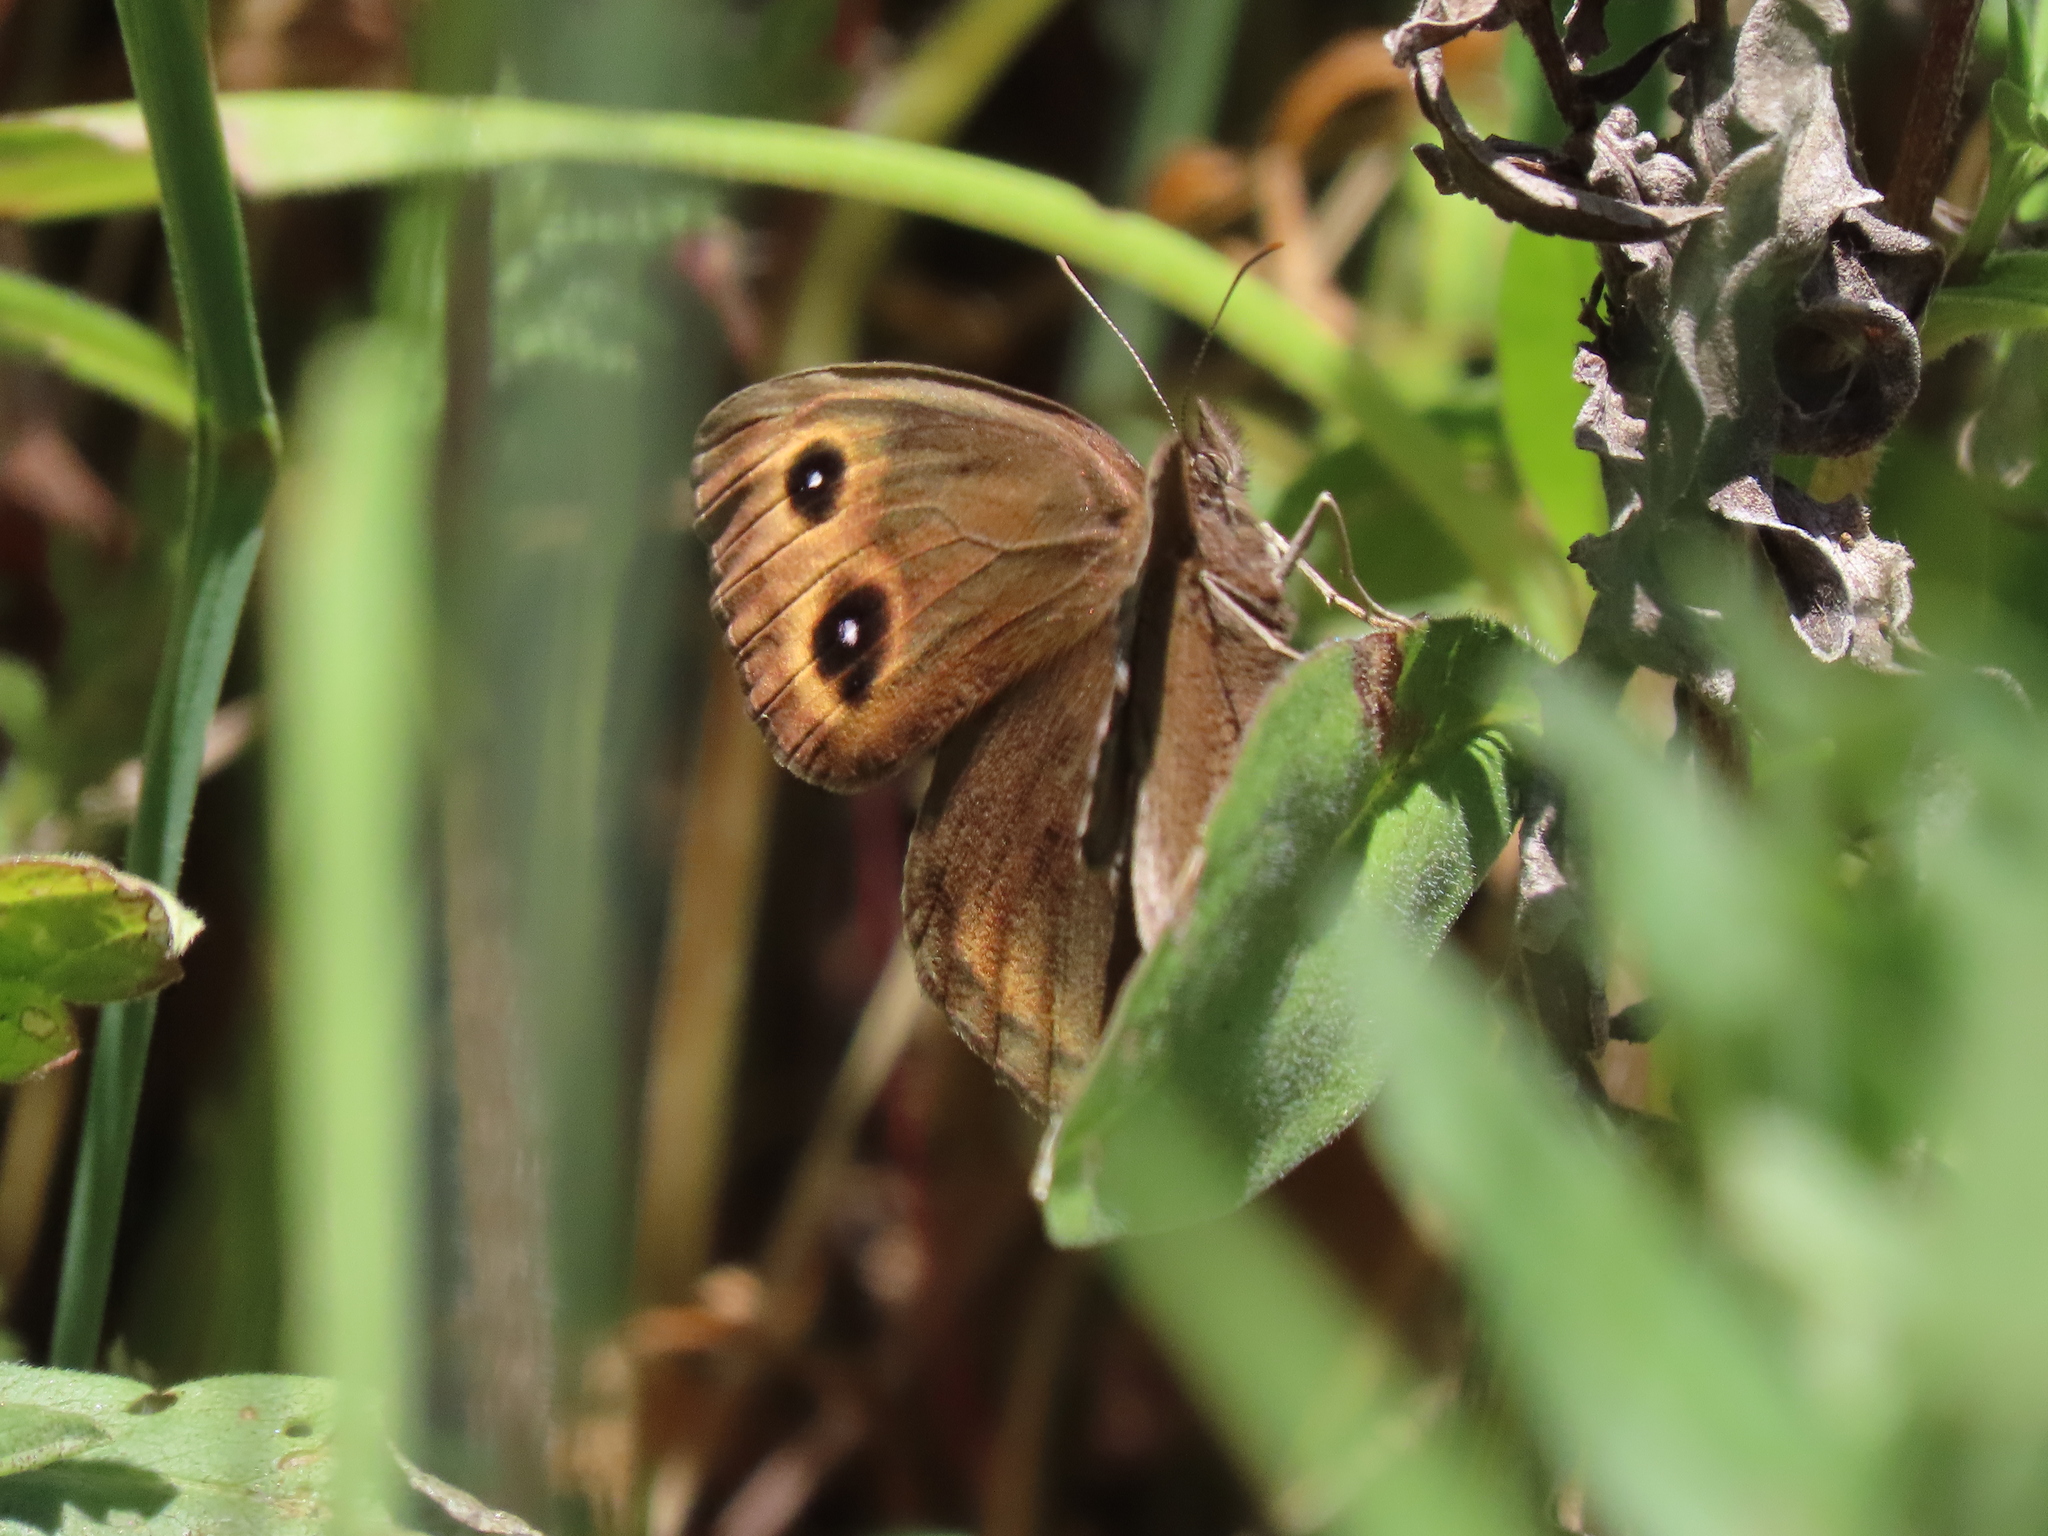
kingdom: Animalia
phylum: Arthropoda
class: Insecta
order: Lepidoptera
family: Nymphalidae
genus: Cercyonis
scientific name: Cercyonis pegala
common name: Common wood-nymph
